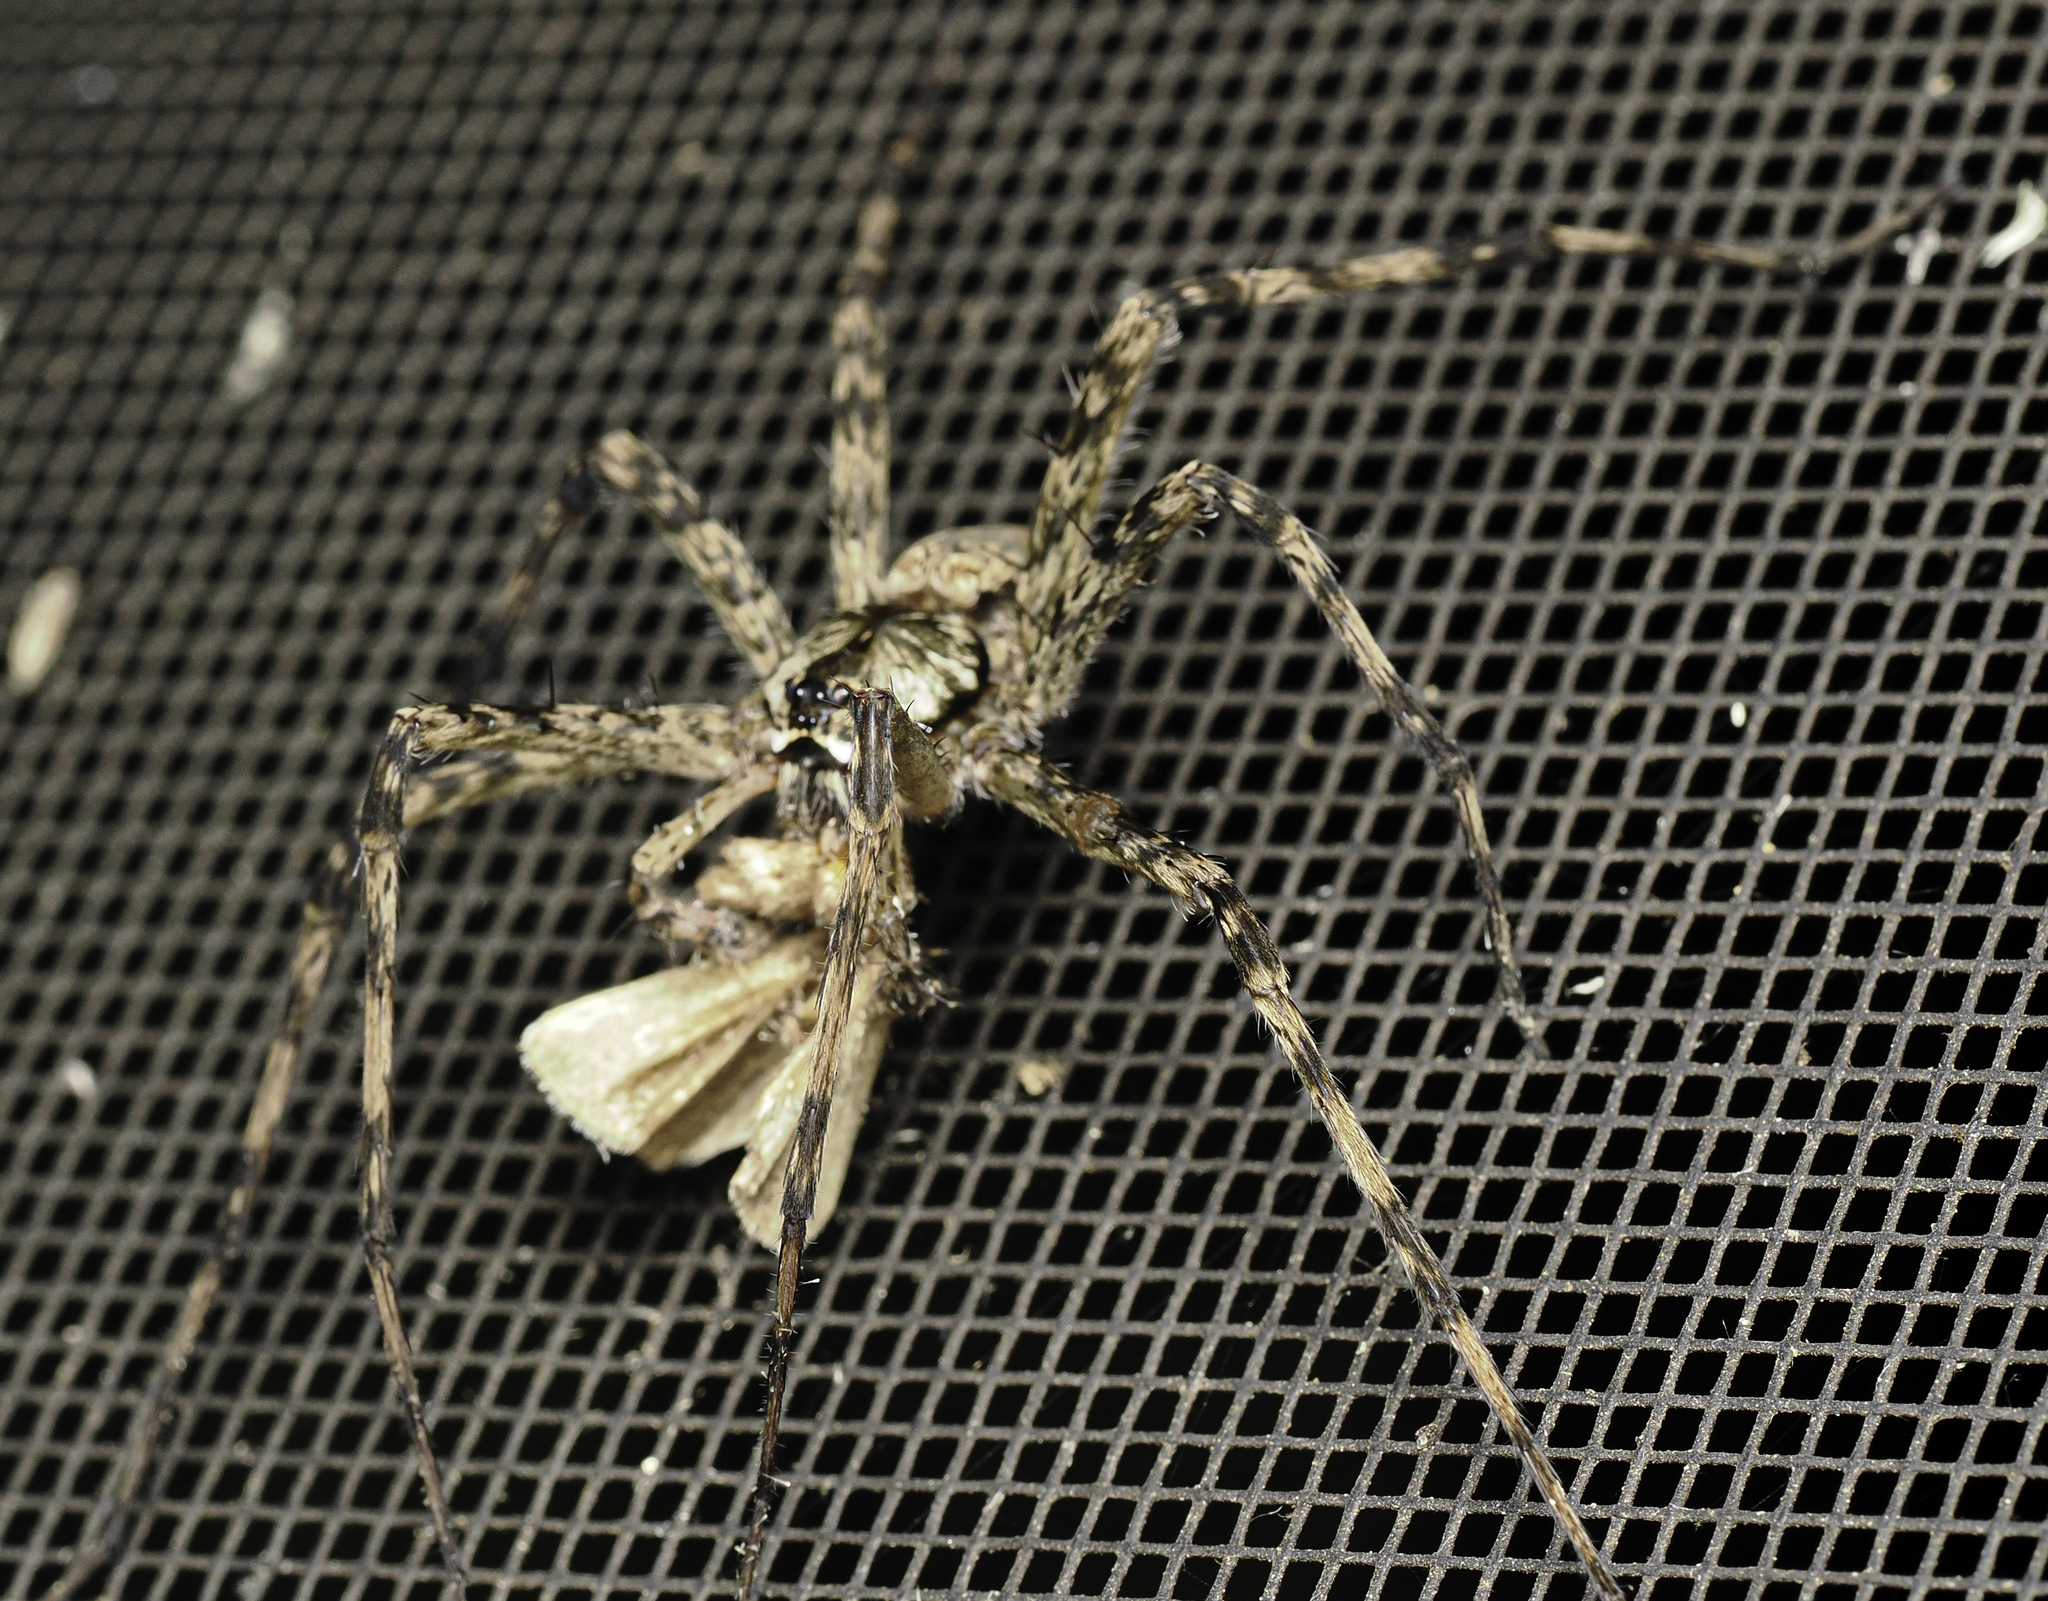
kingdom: Animalia
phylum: Arthropoda
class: Arachnida
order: Araneae
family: Pisauridae
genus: Dolomedes
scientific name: Dolomedes albineus
